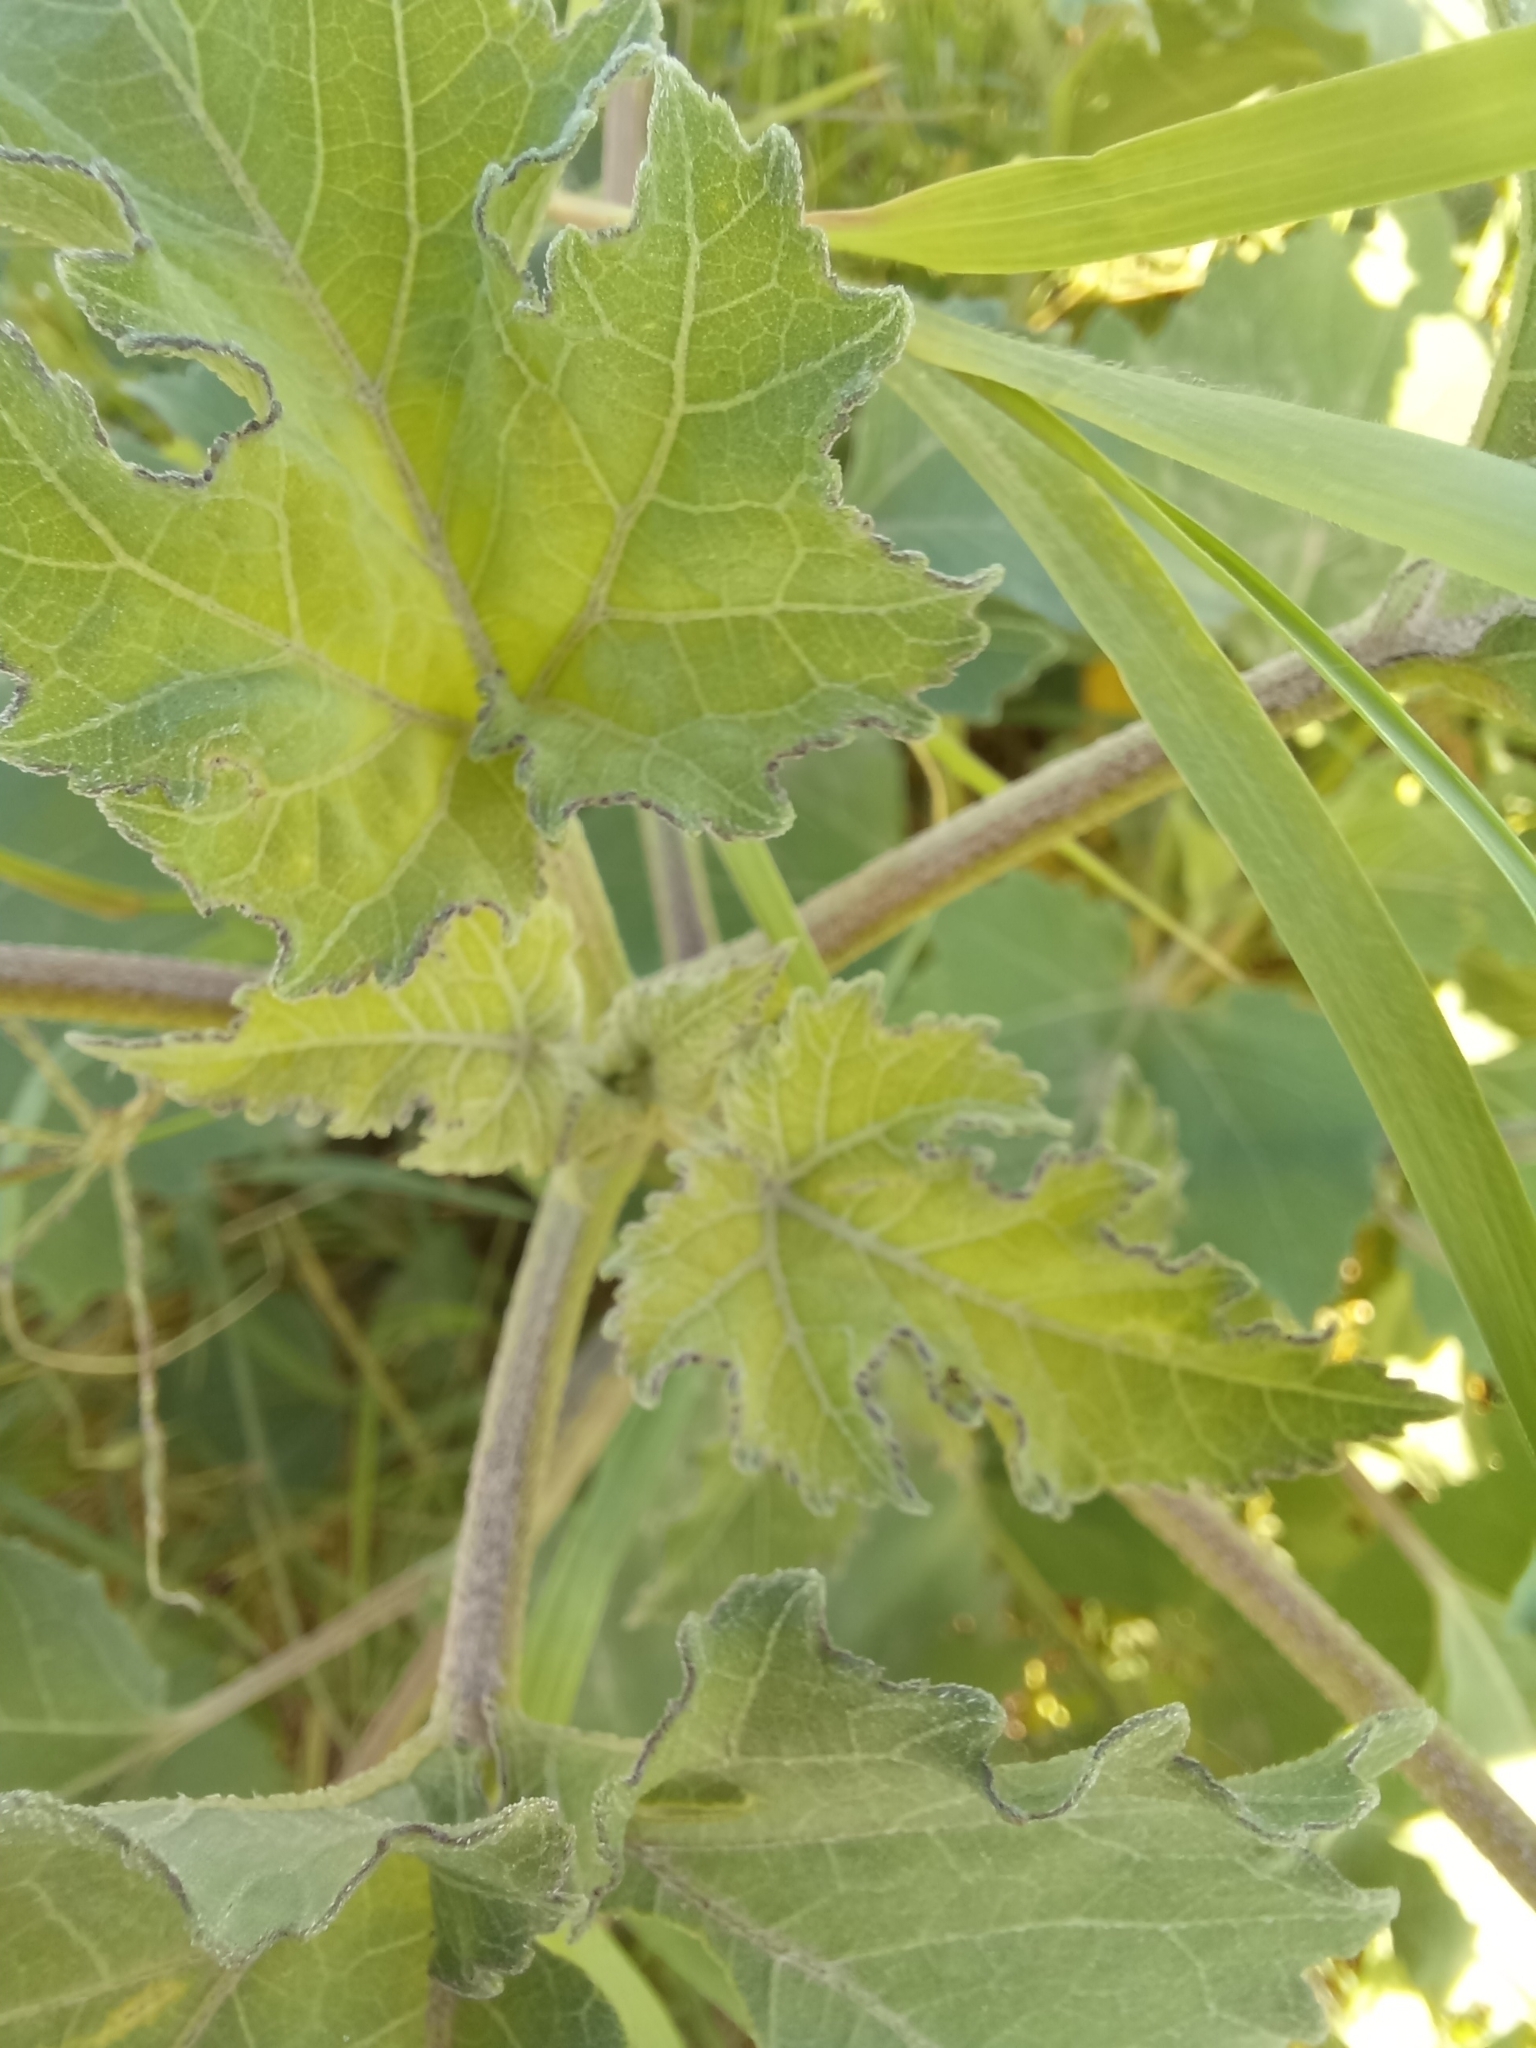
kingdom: Plantae
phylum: Tracheophyta
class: Magnoliopsida
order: Asterales
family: Asteraceae
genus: Xanthium
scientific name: Xanthium orientale
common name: Californian burr
